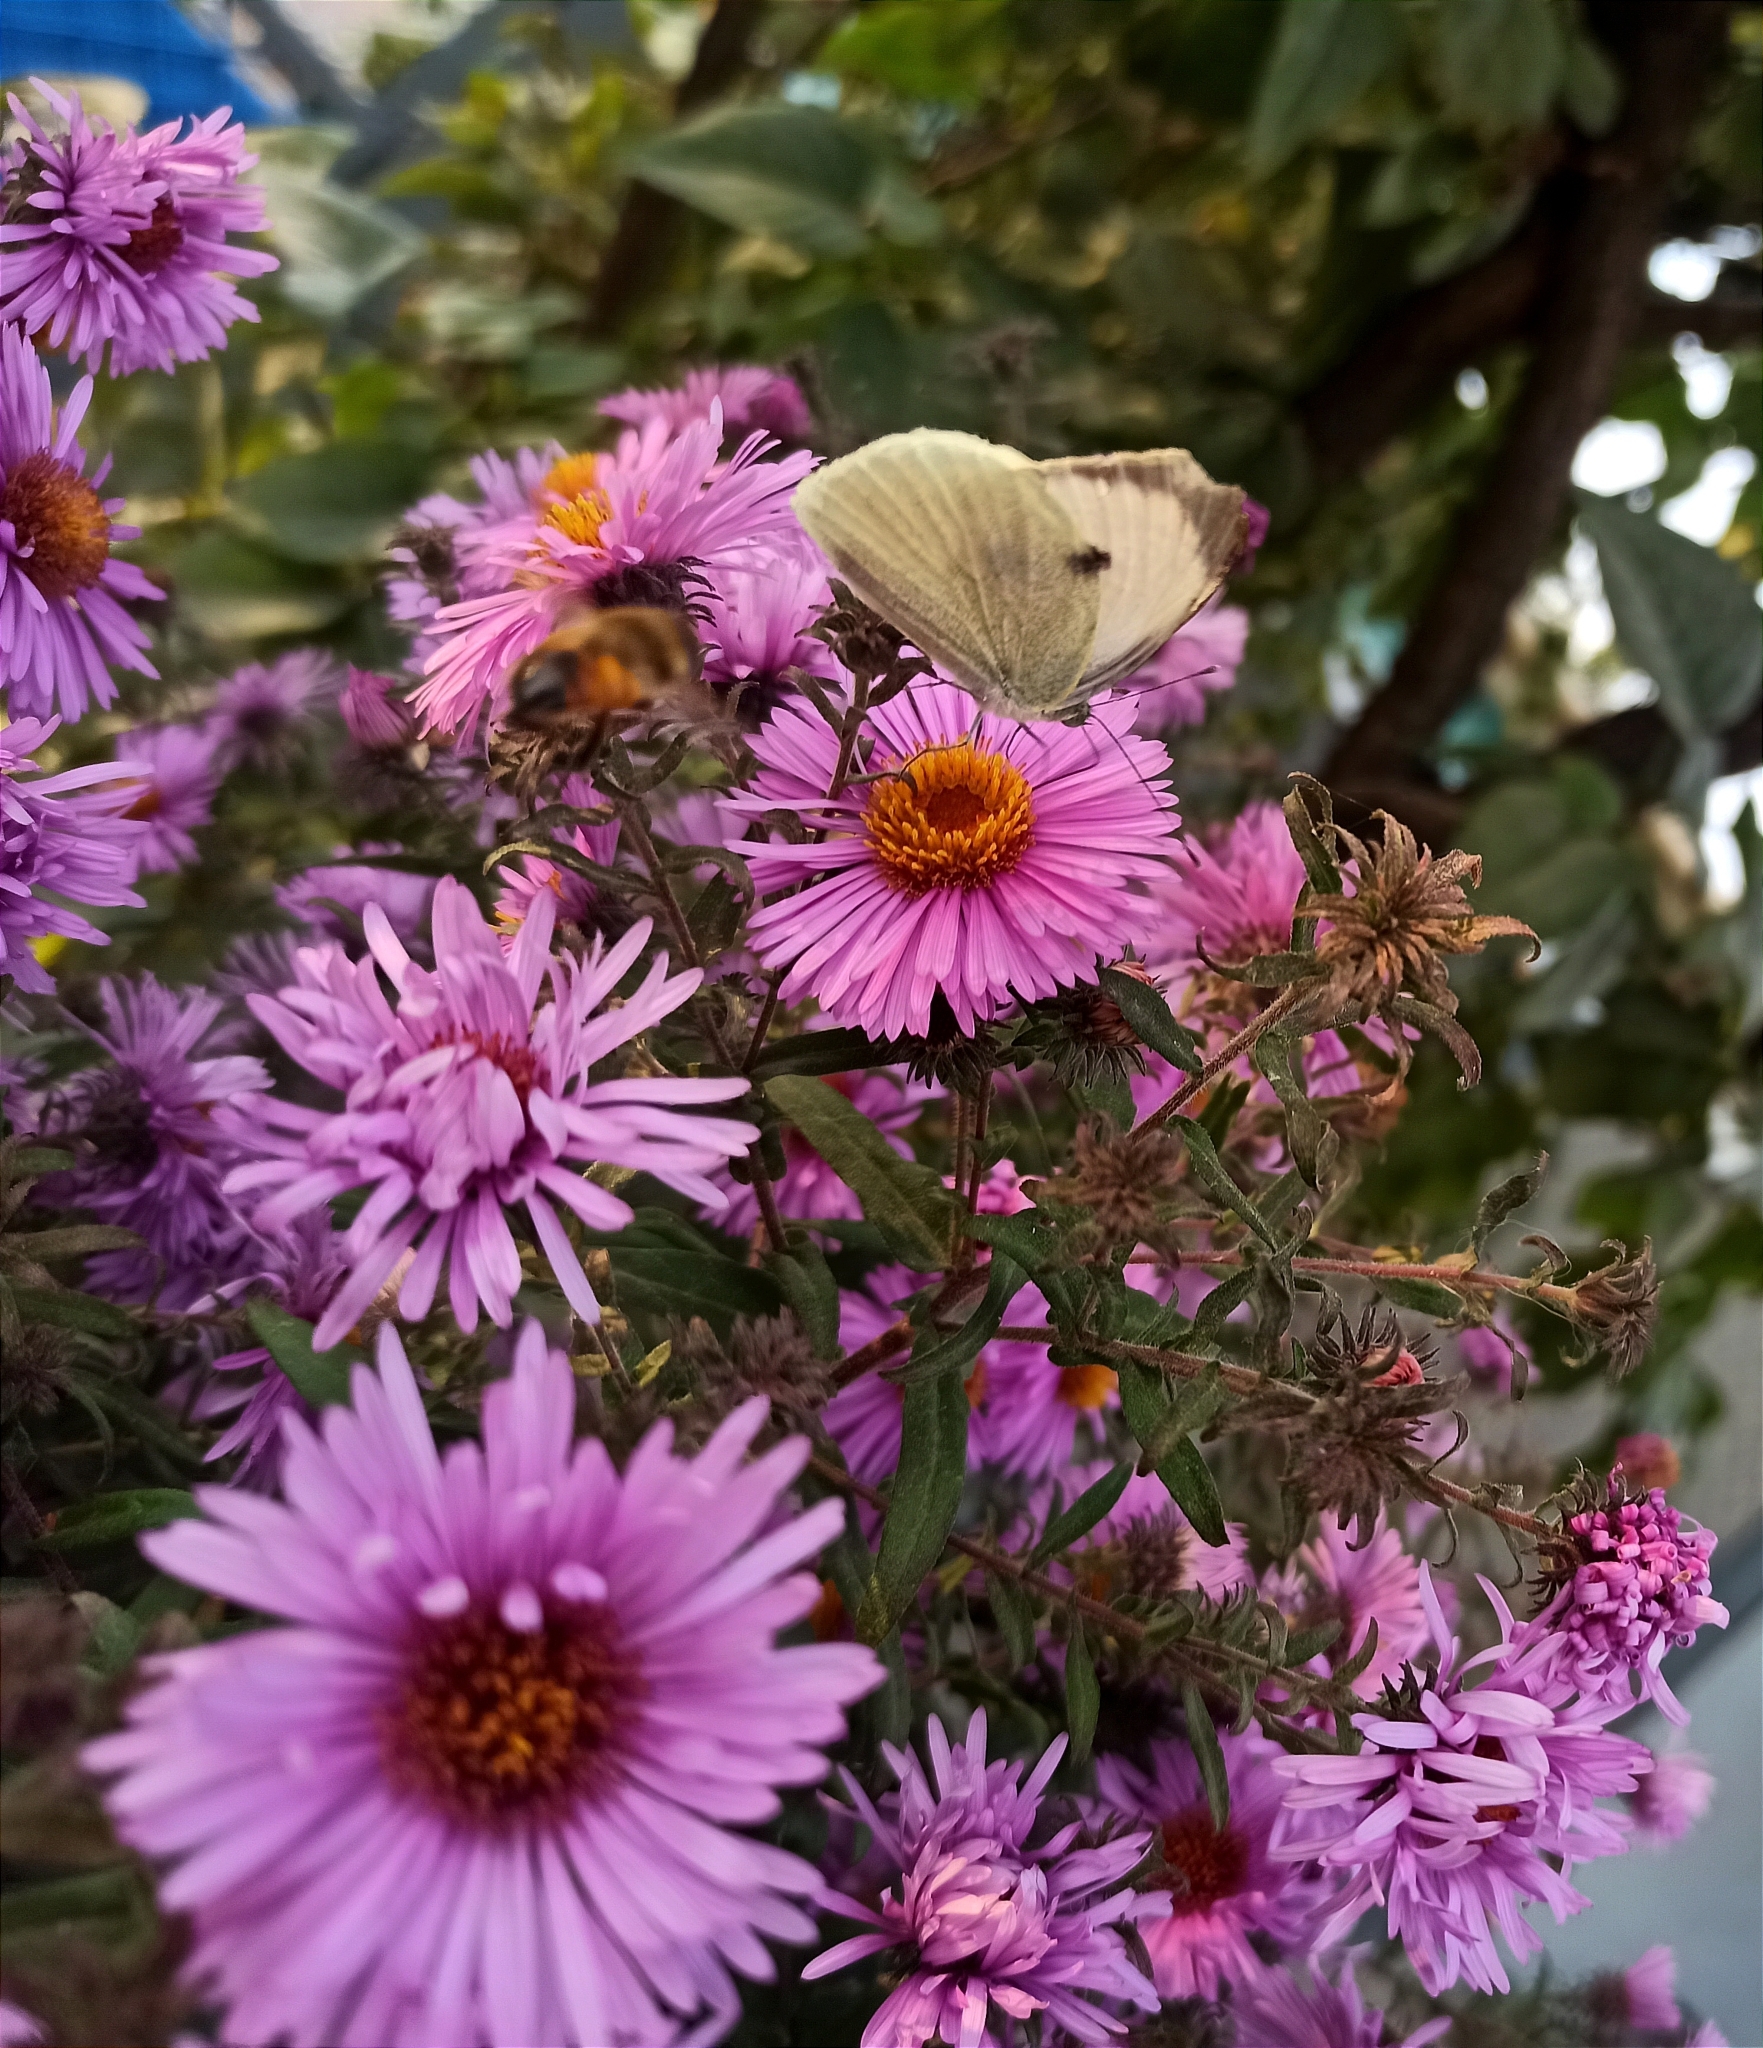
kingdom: Animalia
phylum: Arthropoda
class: Insecta
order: Lepidoptera
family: Pieridae
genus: Pieris
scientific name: Pieris brassicae
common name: Large white
